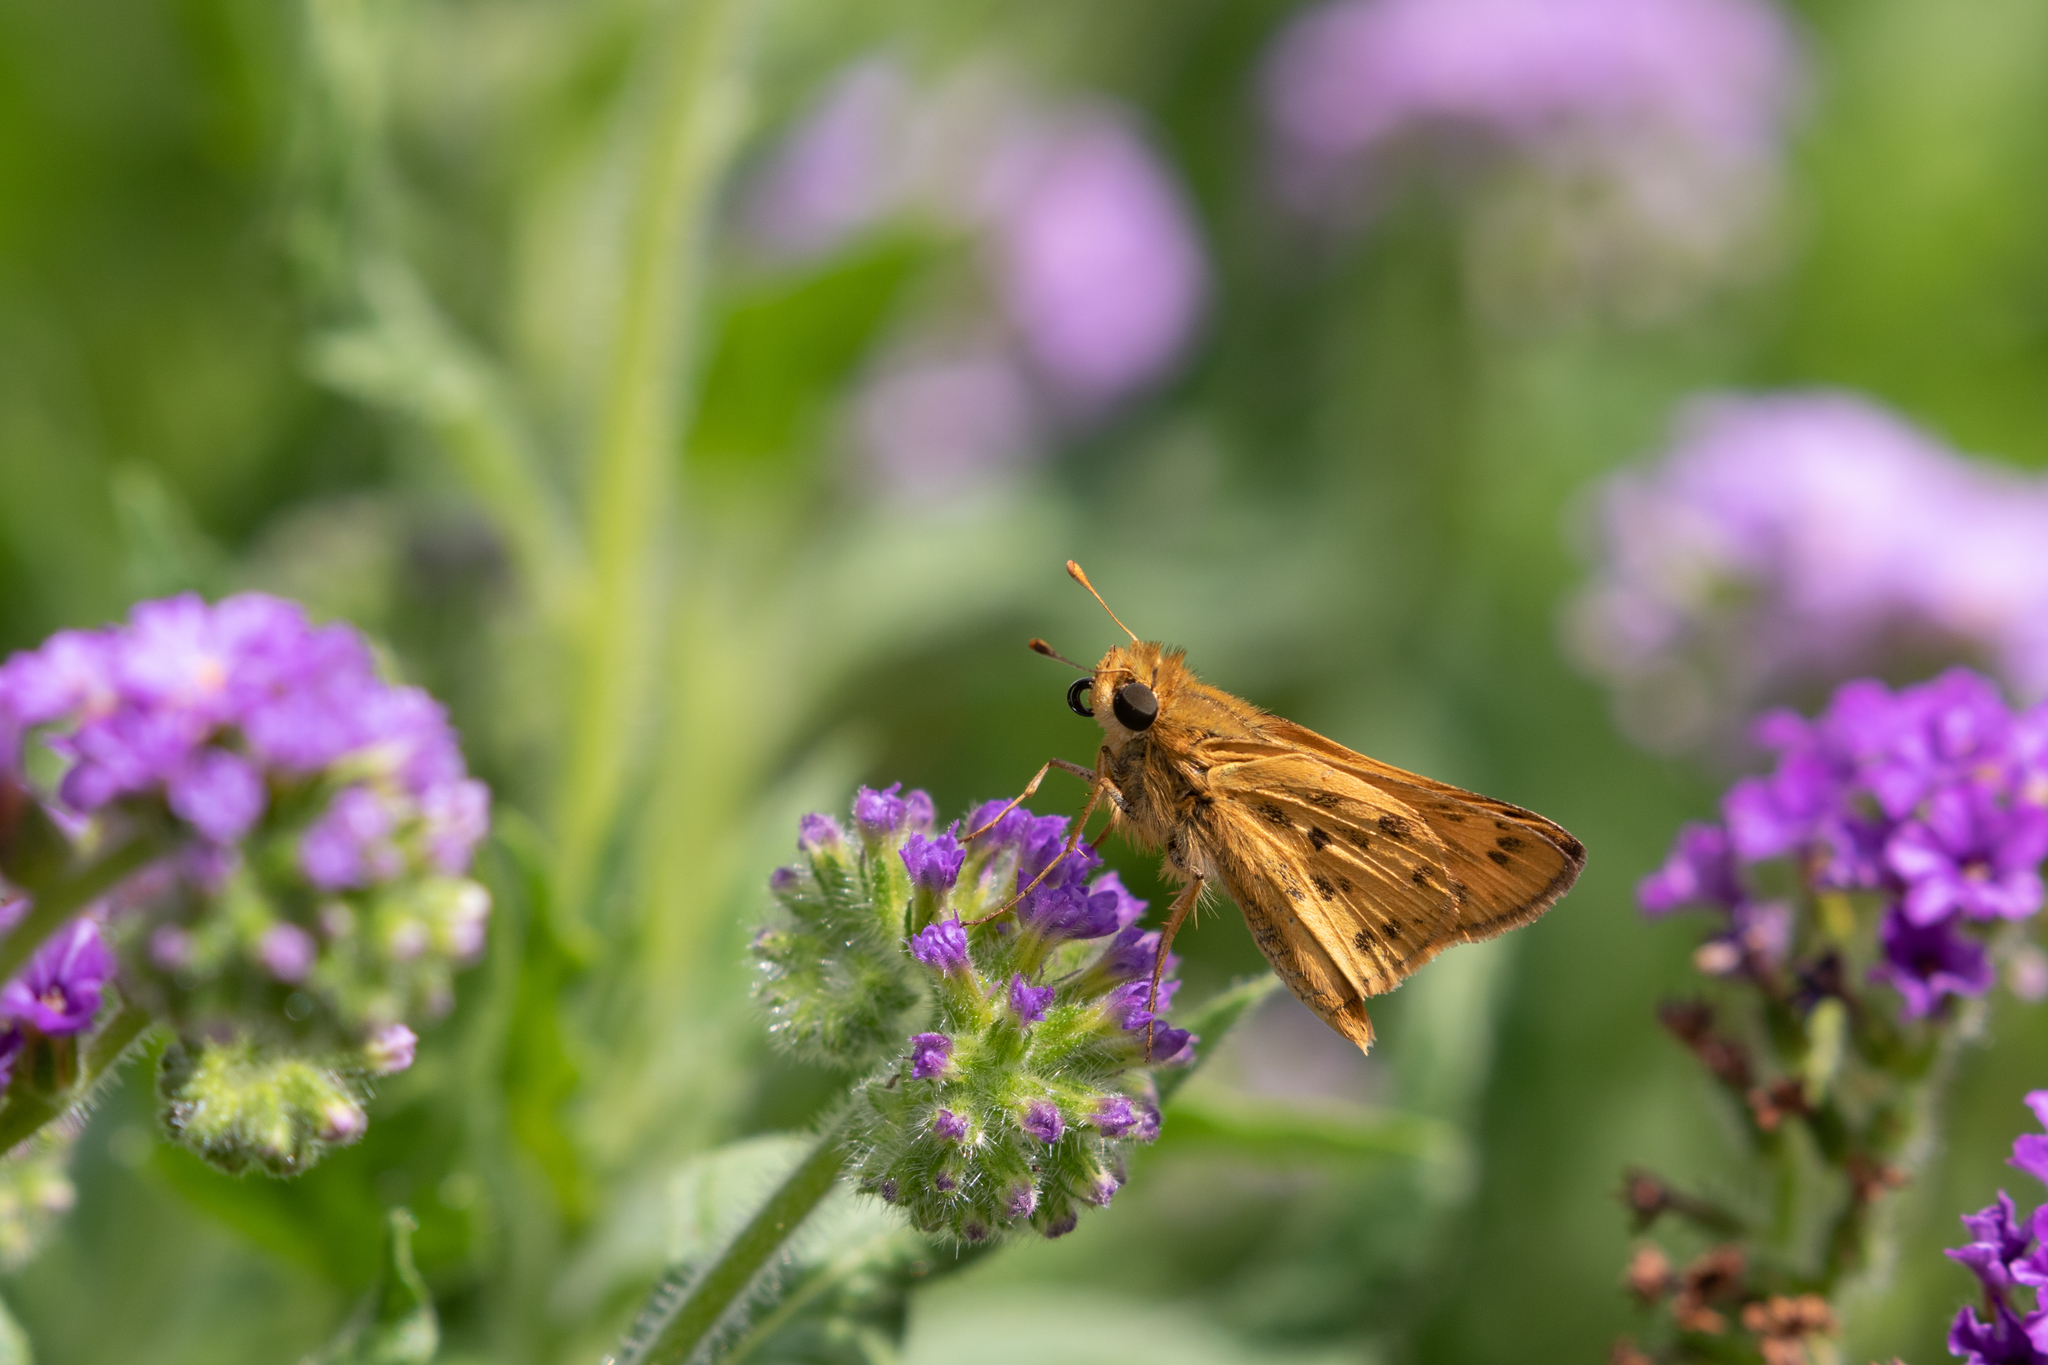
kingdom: Animalia
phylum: Arthropoda
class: Insecta
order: Lepidoptera
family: Hesperiidae
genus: Hylephila
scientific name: Hylephila phyleus
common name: Fiery skipper
